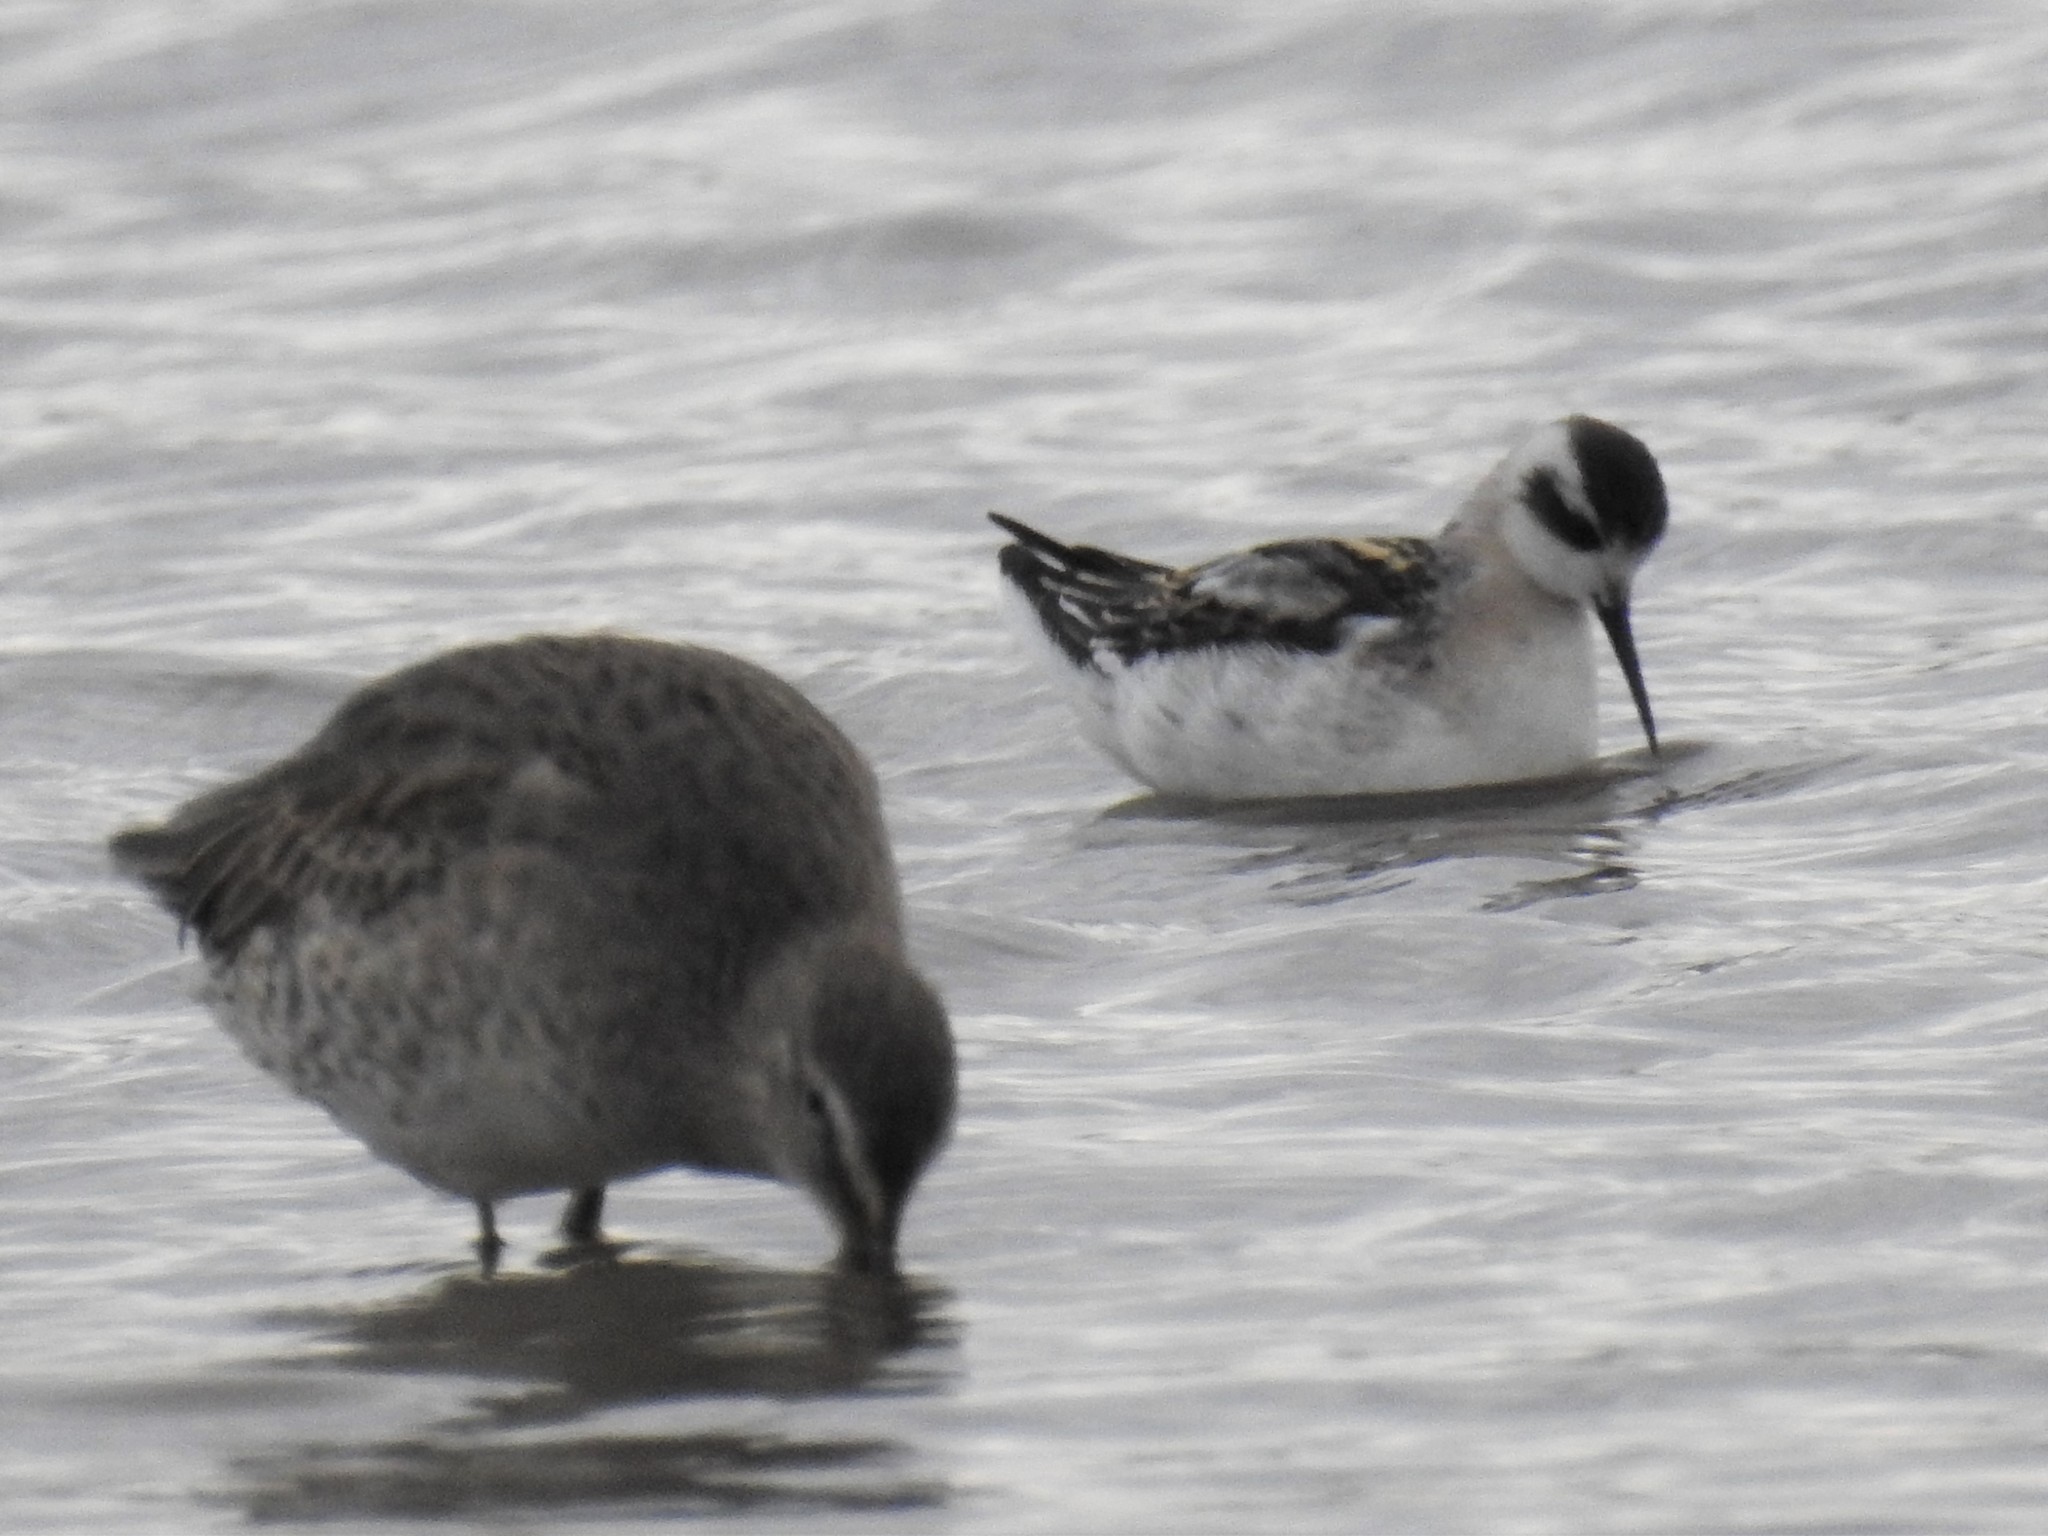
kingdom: Animalia
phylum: Chordata
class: Aves
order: Charadriiformes
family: Scolopacidae
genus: Phalaropus
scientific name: Phalaropus lobatus
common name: Red-necked phalarope
